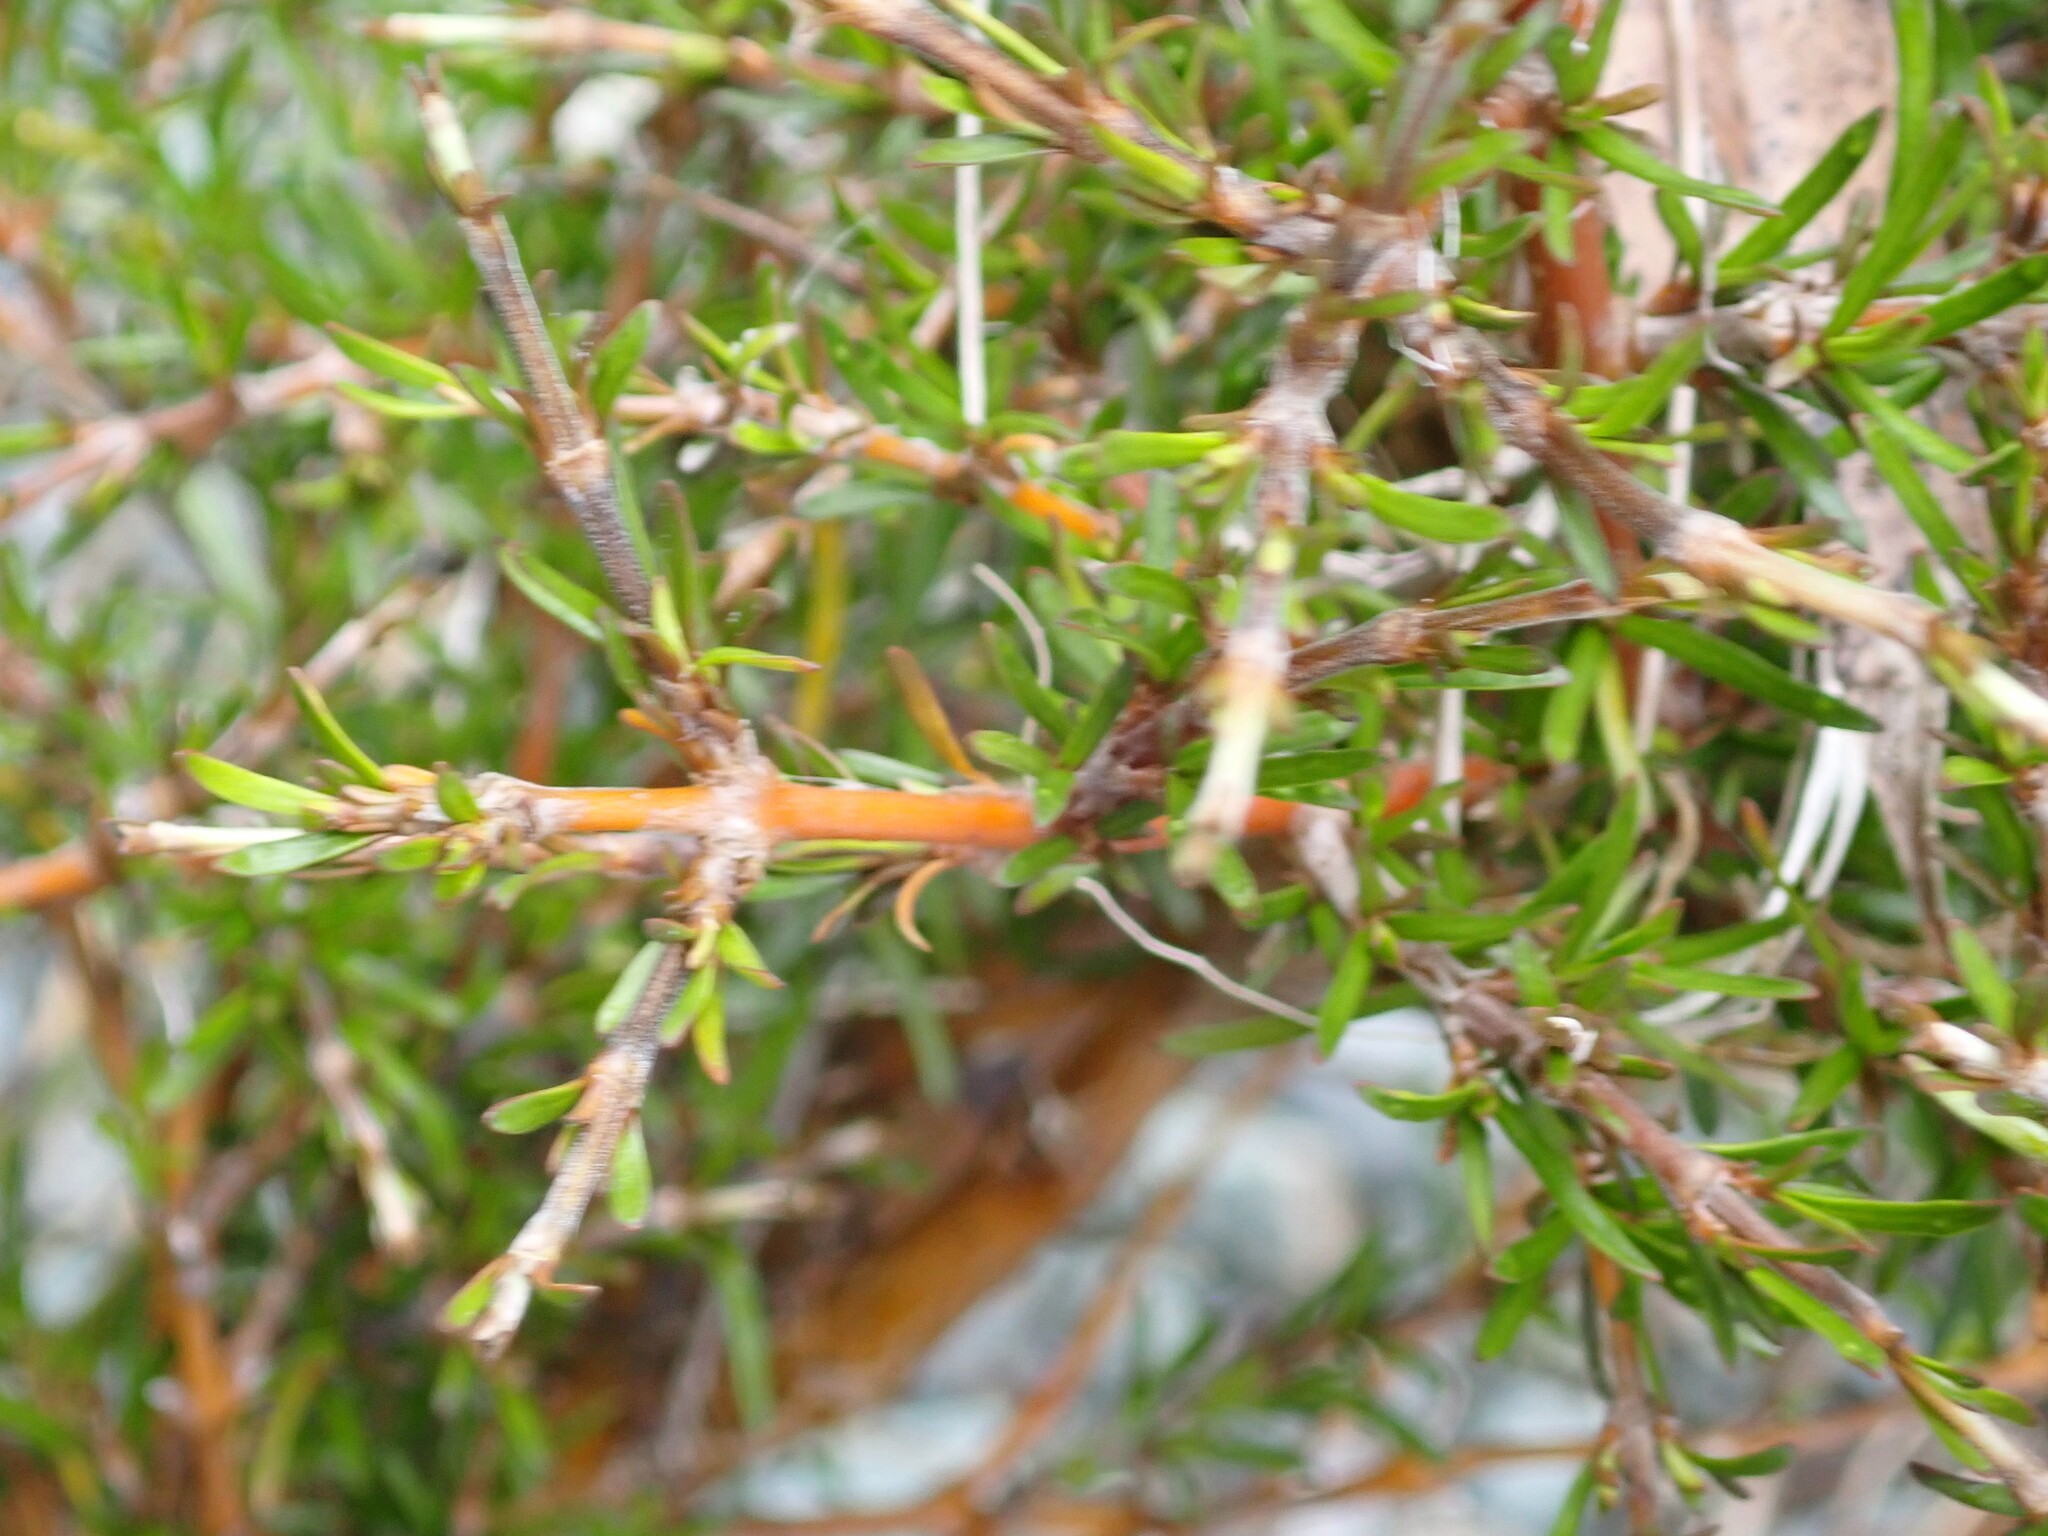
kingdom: Plantae
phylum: Tracheophyta
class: Magnoliopsida
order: Gentianales
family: Rubiaceae
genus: Coprosma
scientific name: Coprosma rugosa
